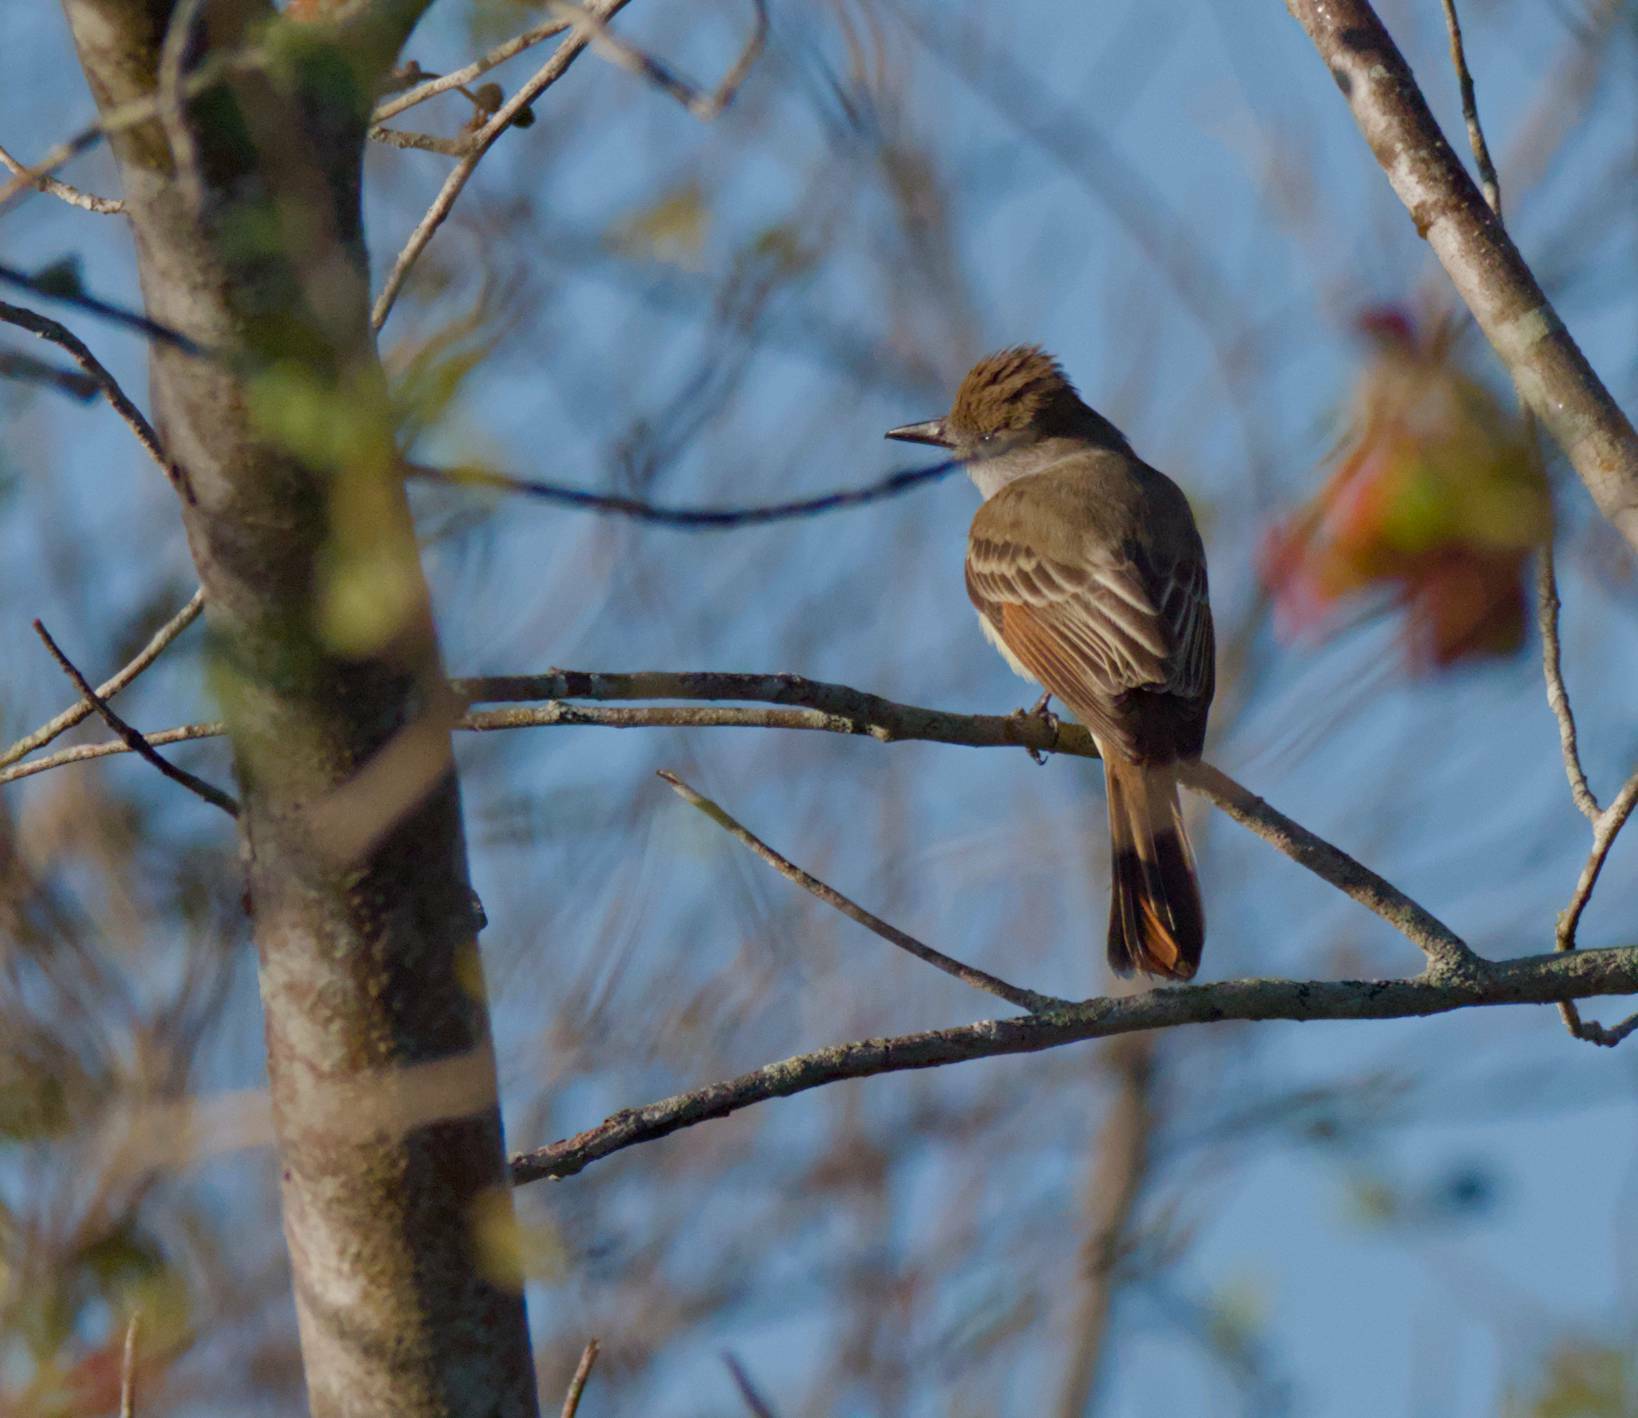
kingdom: Animalia
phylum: Chordata
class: Aves
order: Passeriformes
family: Tyrannidae
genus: Myiarchus
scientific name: Myiarchus tyrannulus
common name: Brown-crested flycatcher
